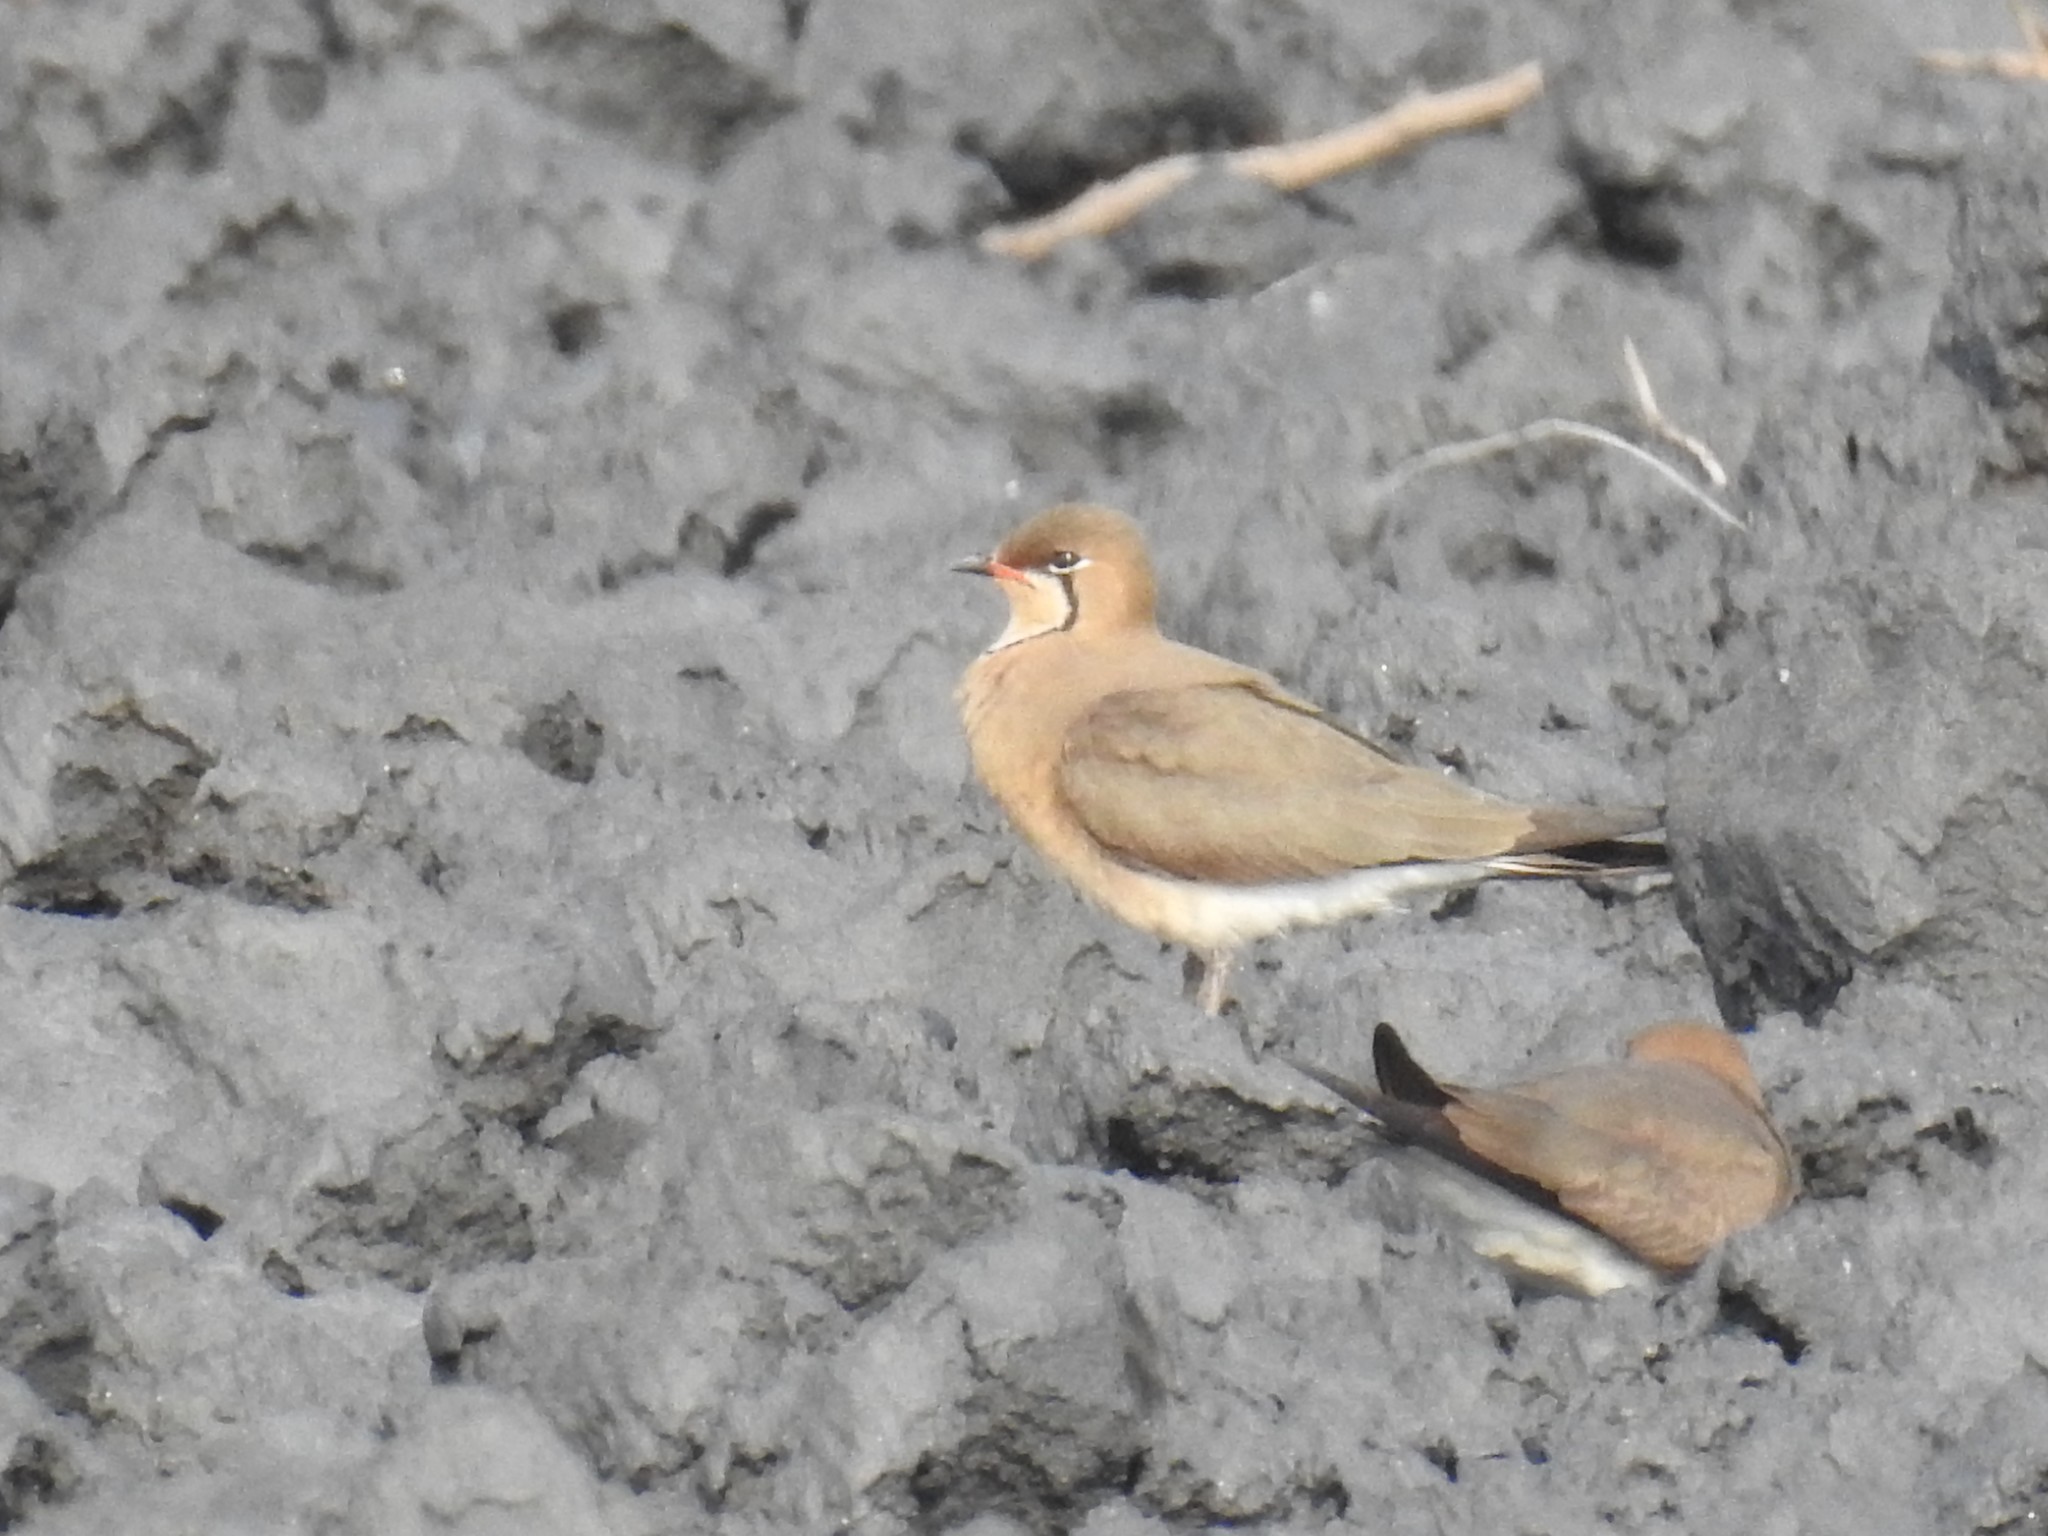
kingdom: Animalia
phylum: Chordata
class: Aves
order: Charadriiformes
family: Glareolidae
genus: Glareola
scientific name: Glareola maldivarum
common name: Oriental pratincole
